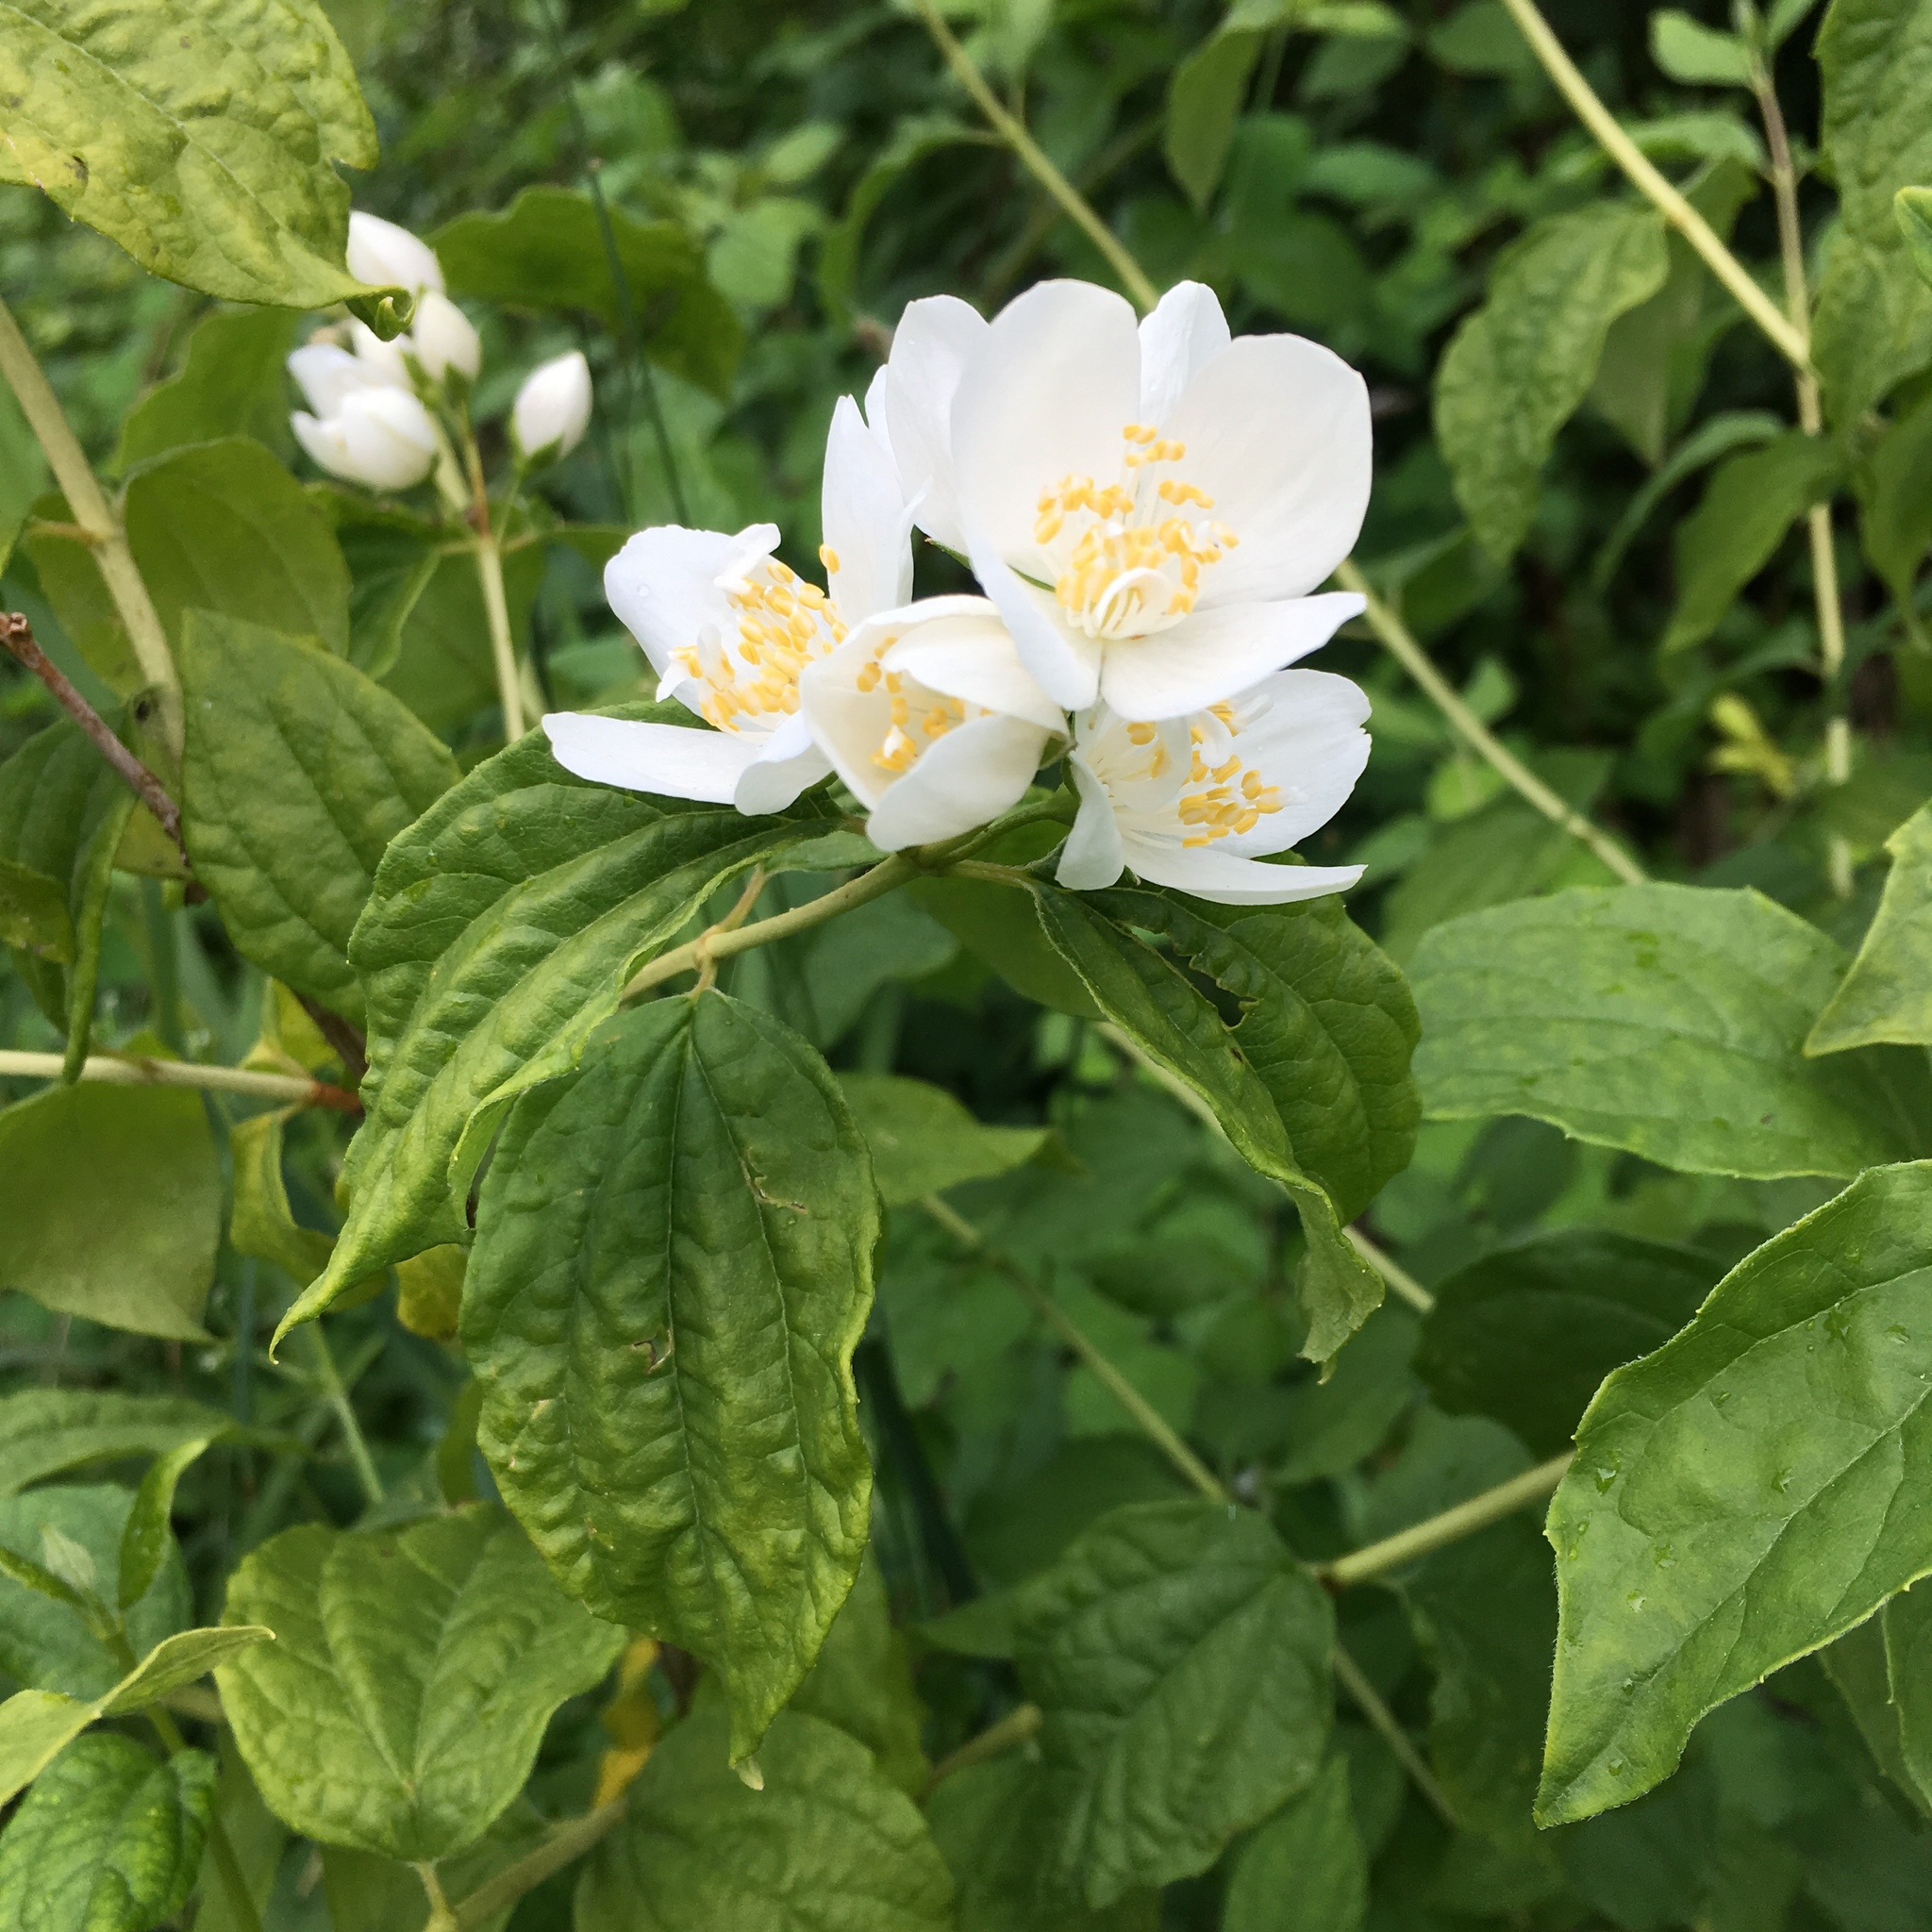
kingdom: Plantae
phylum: Tracheophyta
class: Magnoliopsida
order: Cornales
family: Hydrangeaceae
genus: Philadelphus
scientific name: Philadelphus lewisii
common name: Lewis's mock orange
